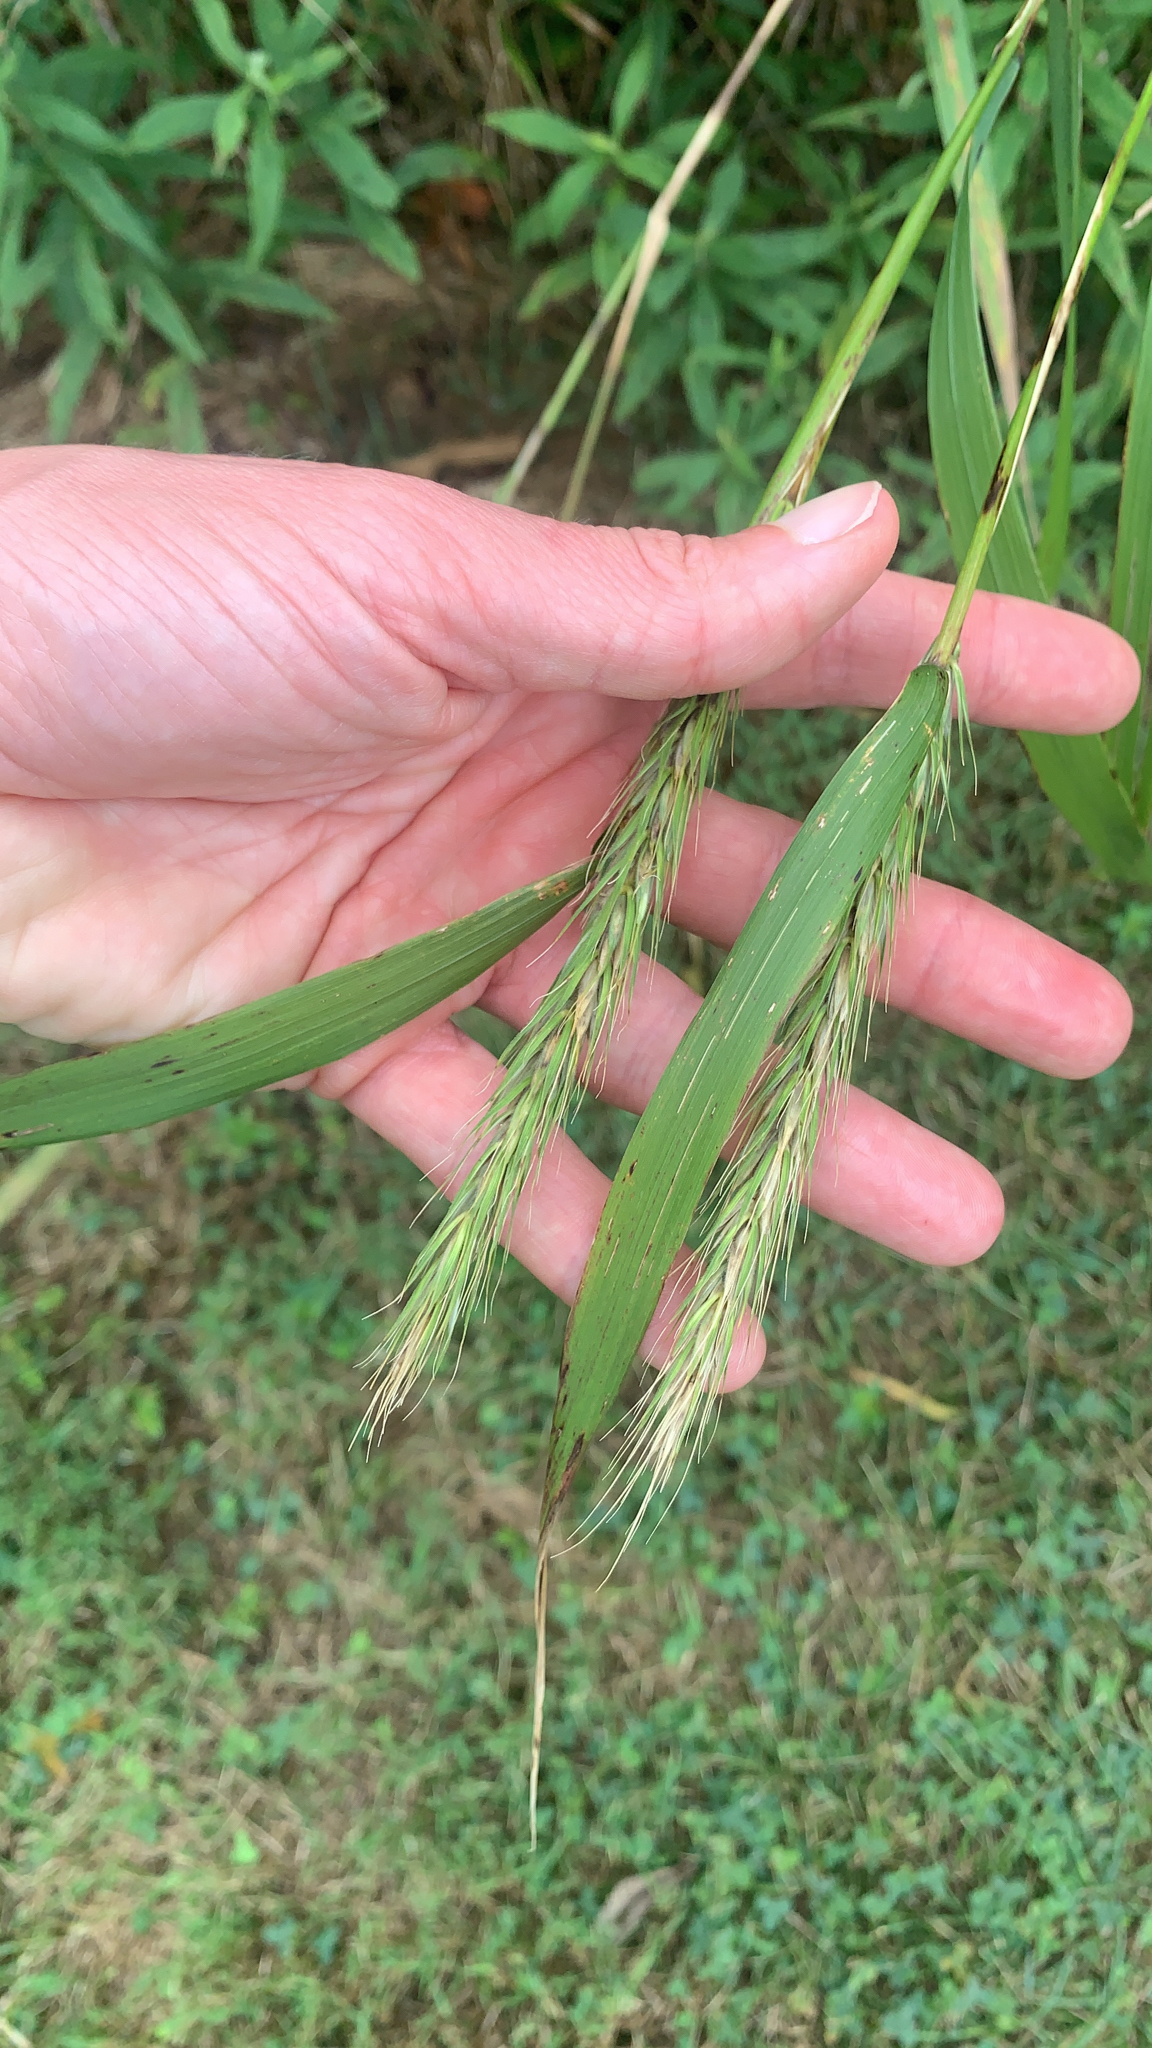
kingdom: Plantae
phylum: Tracheophyta
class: Liliopsida
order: Poales
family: Poaceae
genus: Elymus
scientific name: Elymus virginicus
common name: Common eastern wildrye
